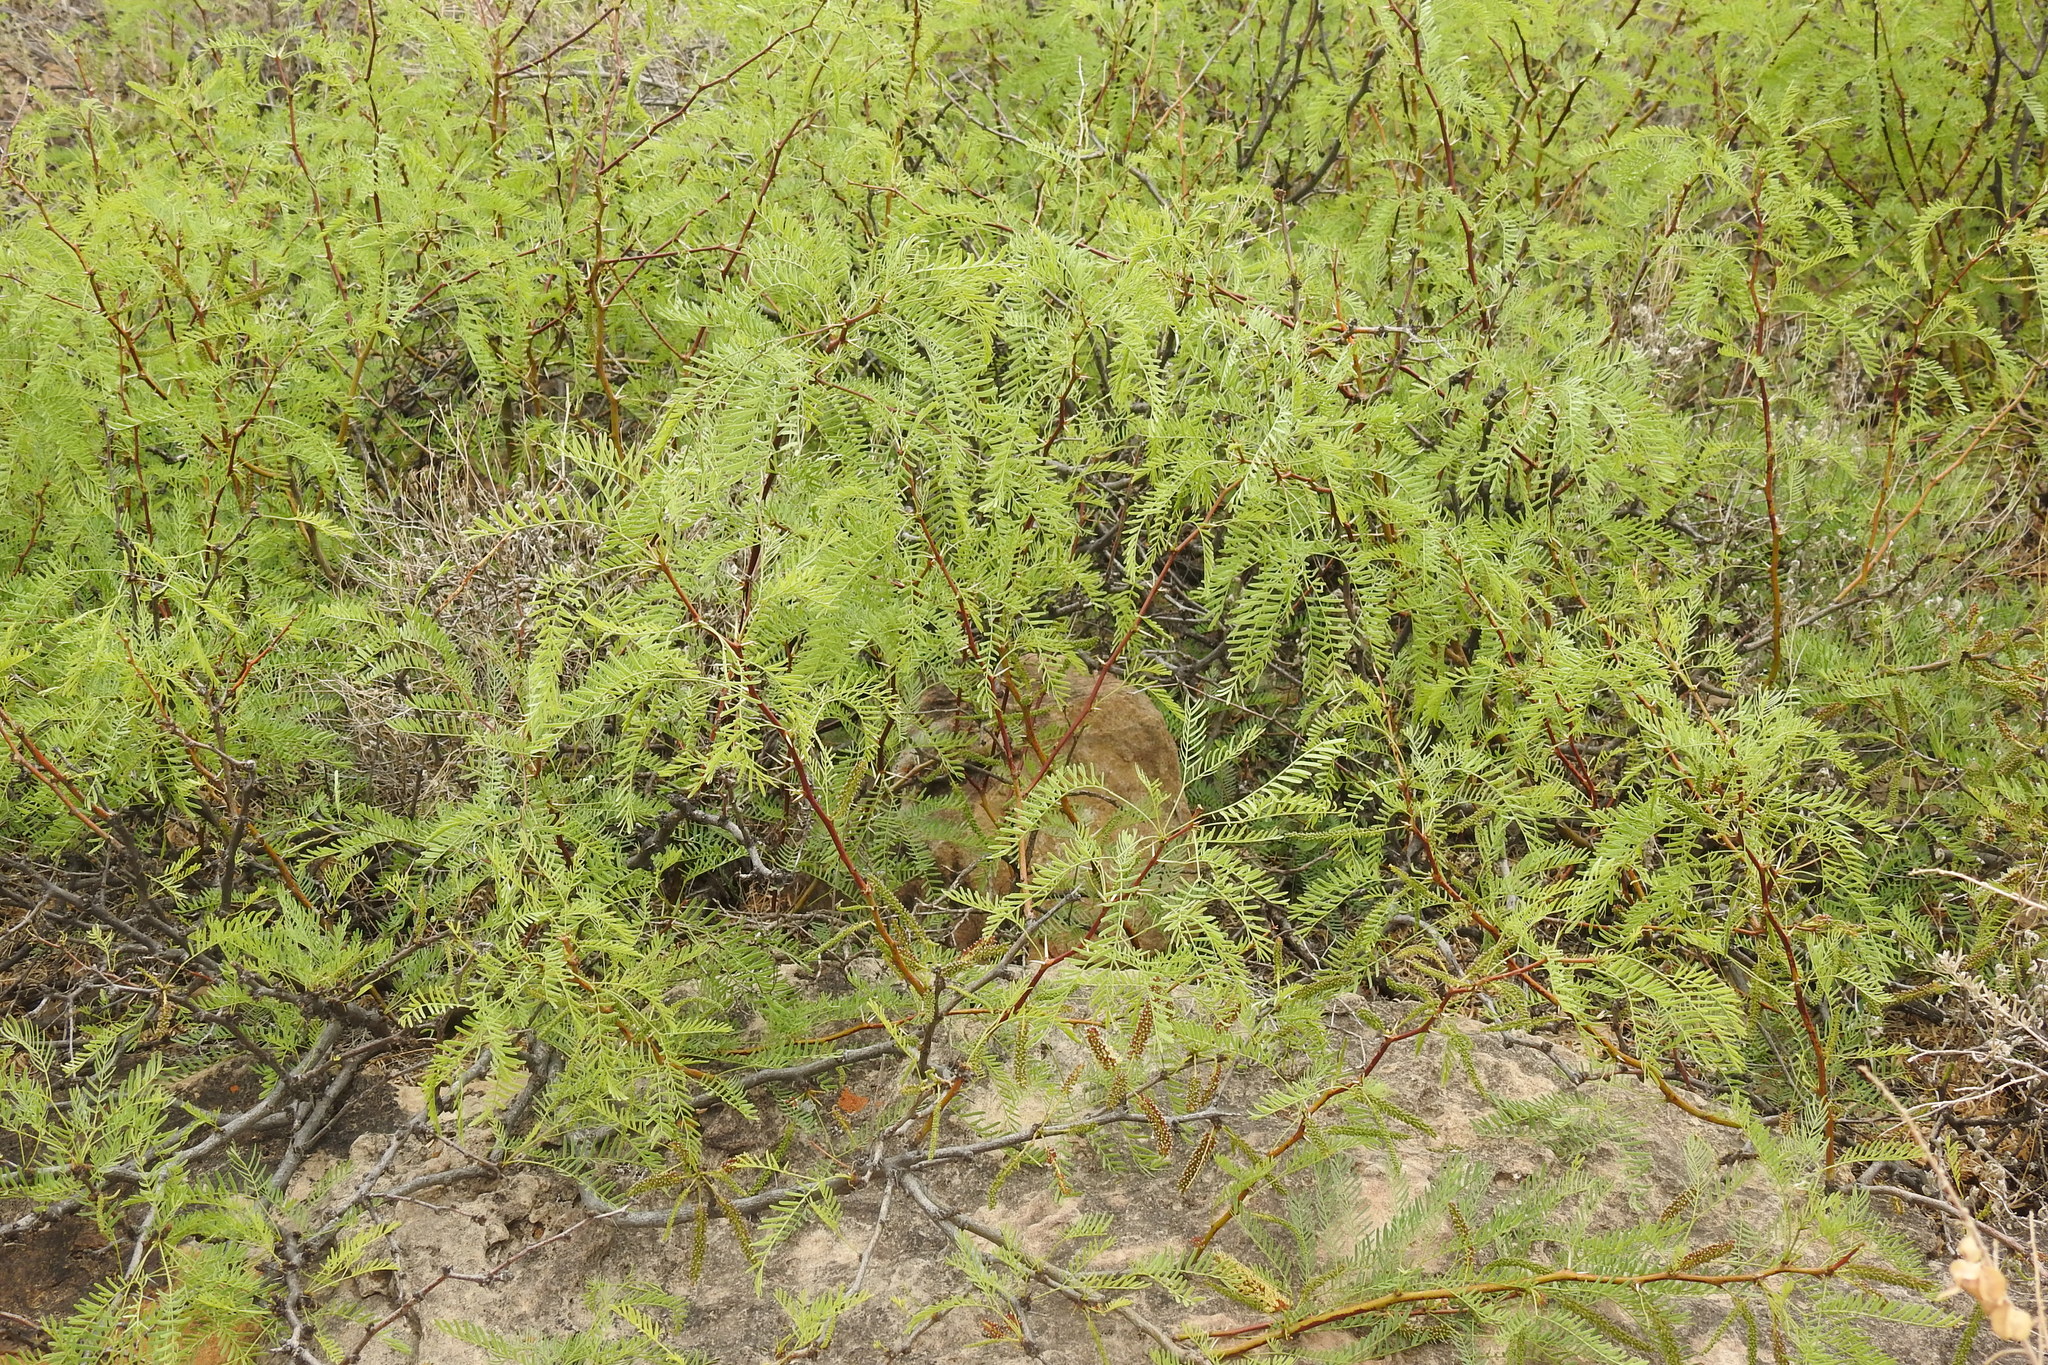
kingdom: Plantae
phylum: Tracheophyta
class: Magnoliopsida
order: Fabales
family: Fabaceae
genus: Prosopis
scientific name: Prosopis glandulosa
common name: Honey mesquite
